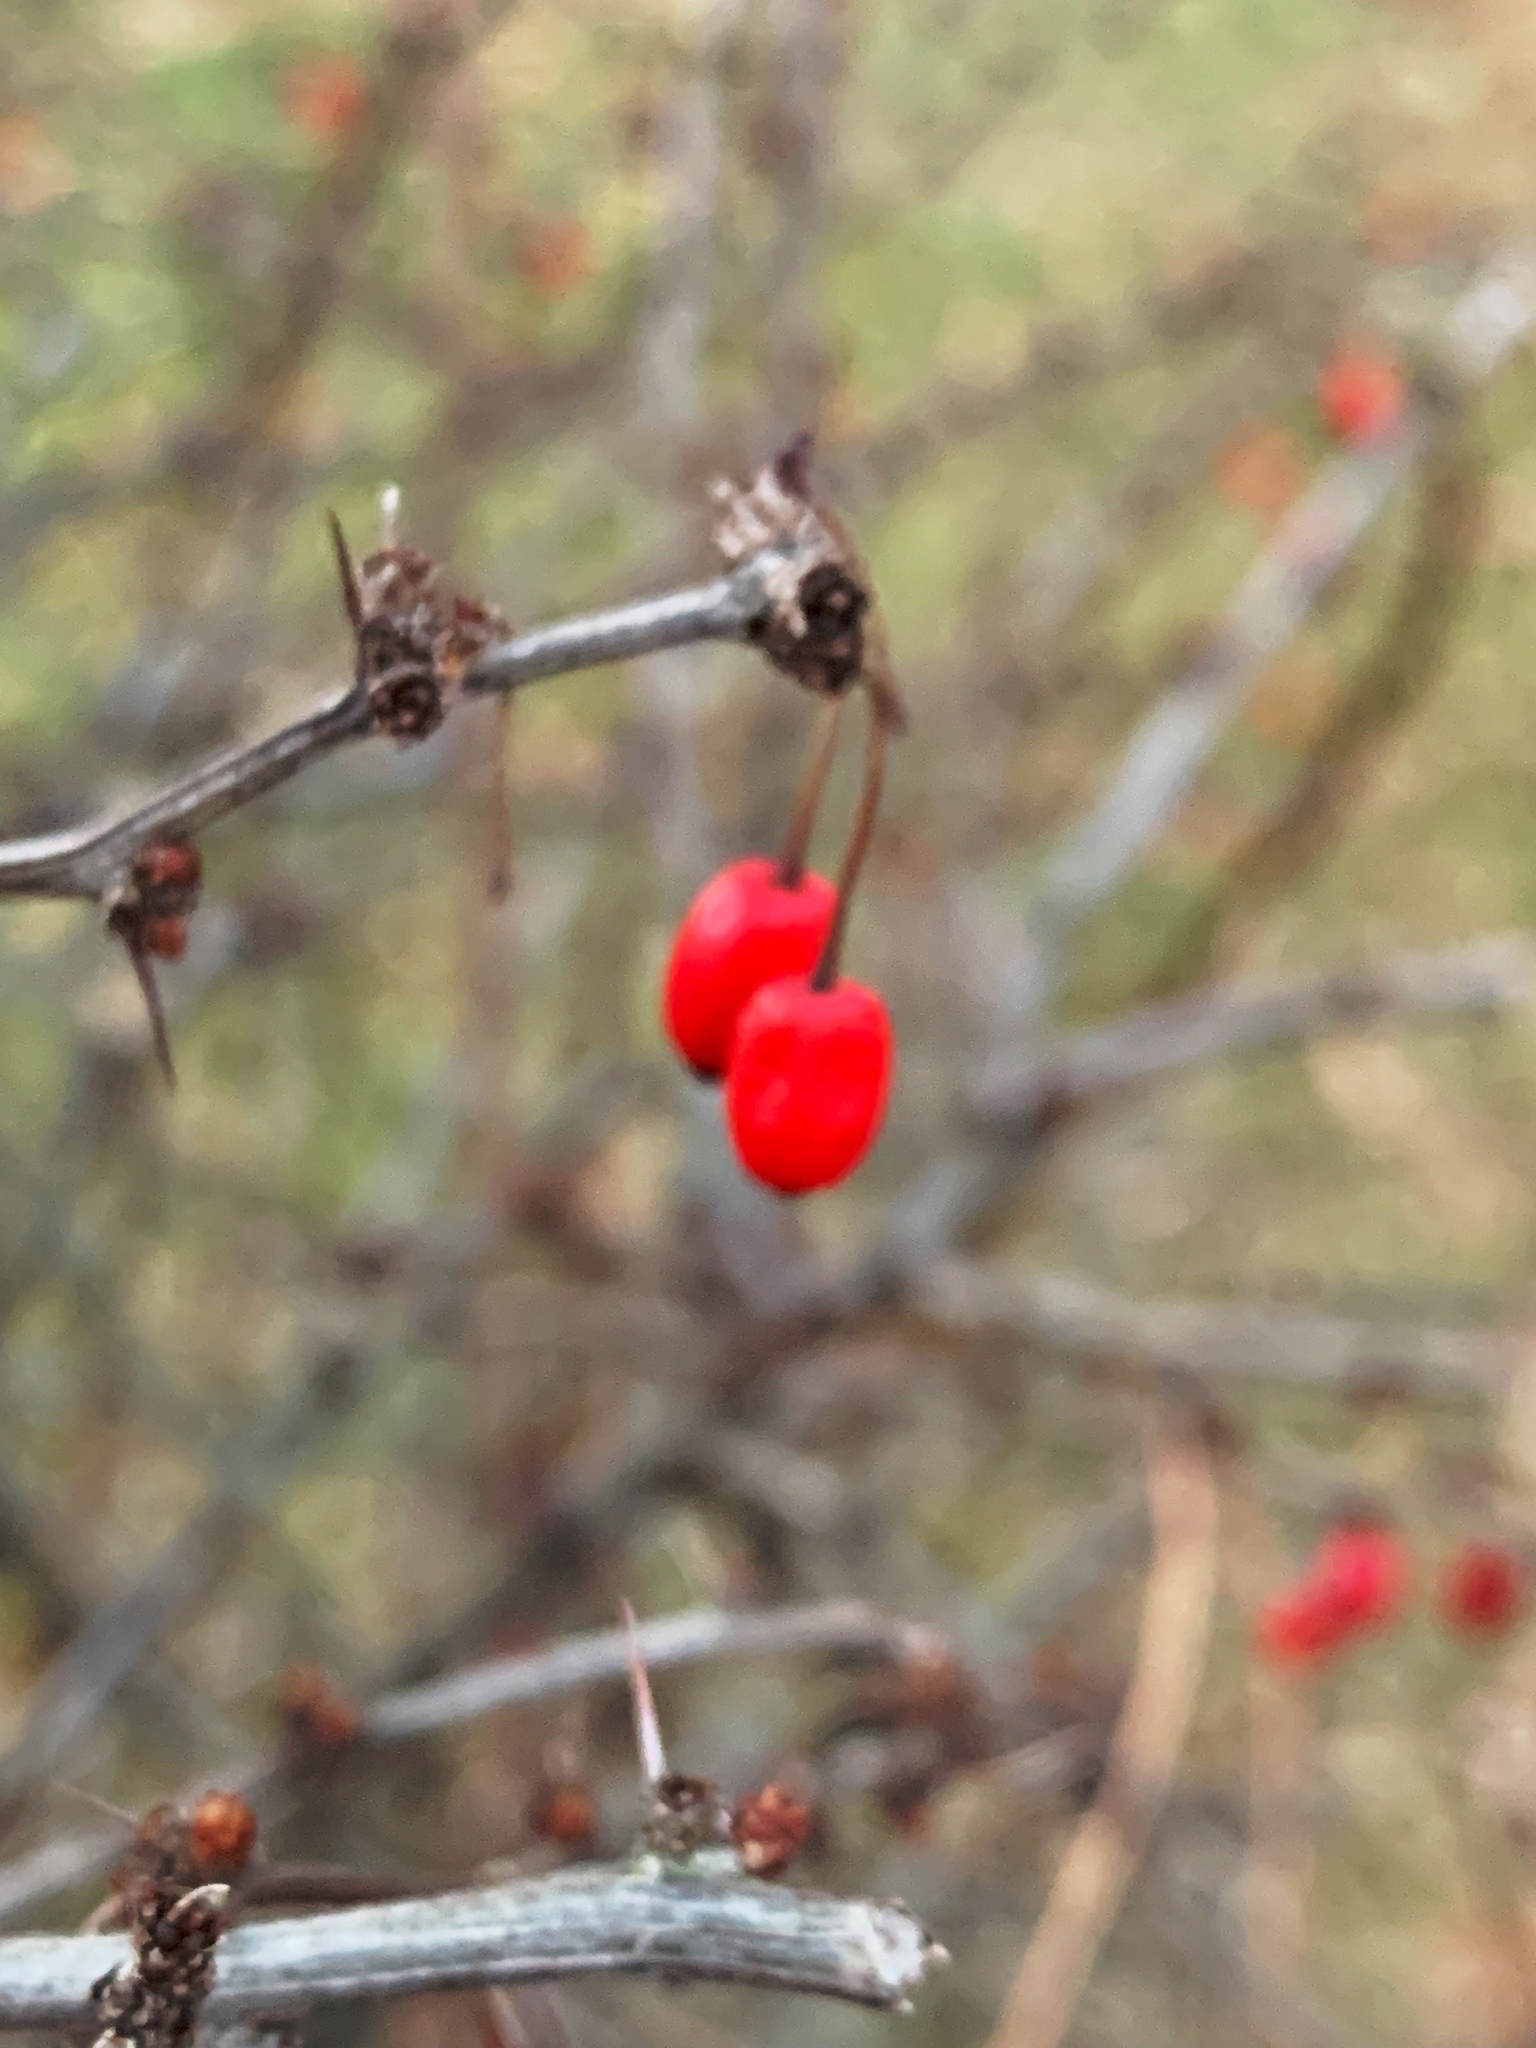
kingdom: Plantae
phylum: Tracheophyta
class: Magnoliopsida
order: Ranunculales
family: Berberidaceae
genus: Berberis
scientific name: Berberis thunbergii
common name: Japanese barberry
